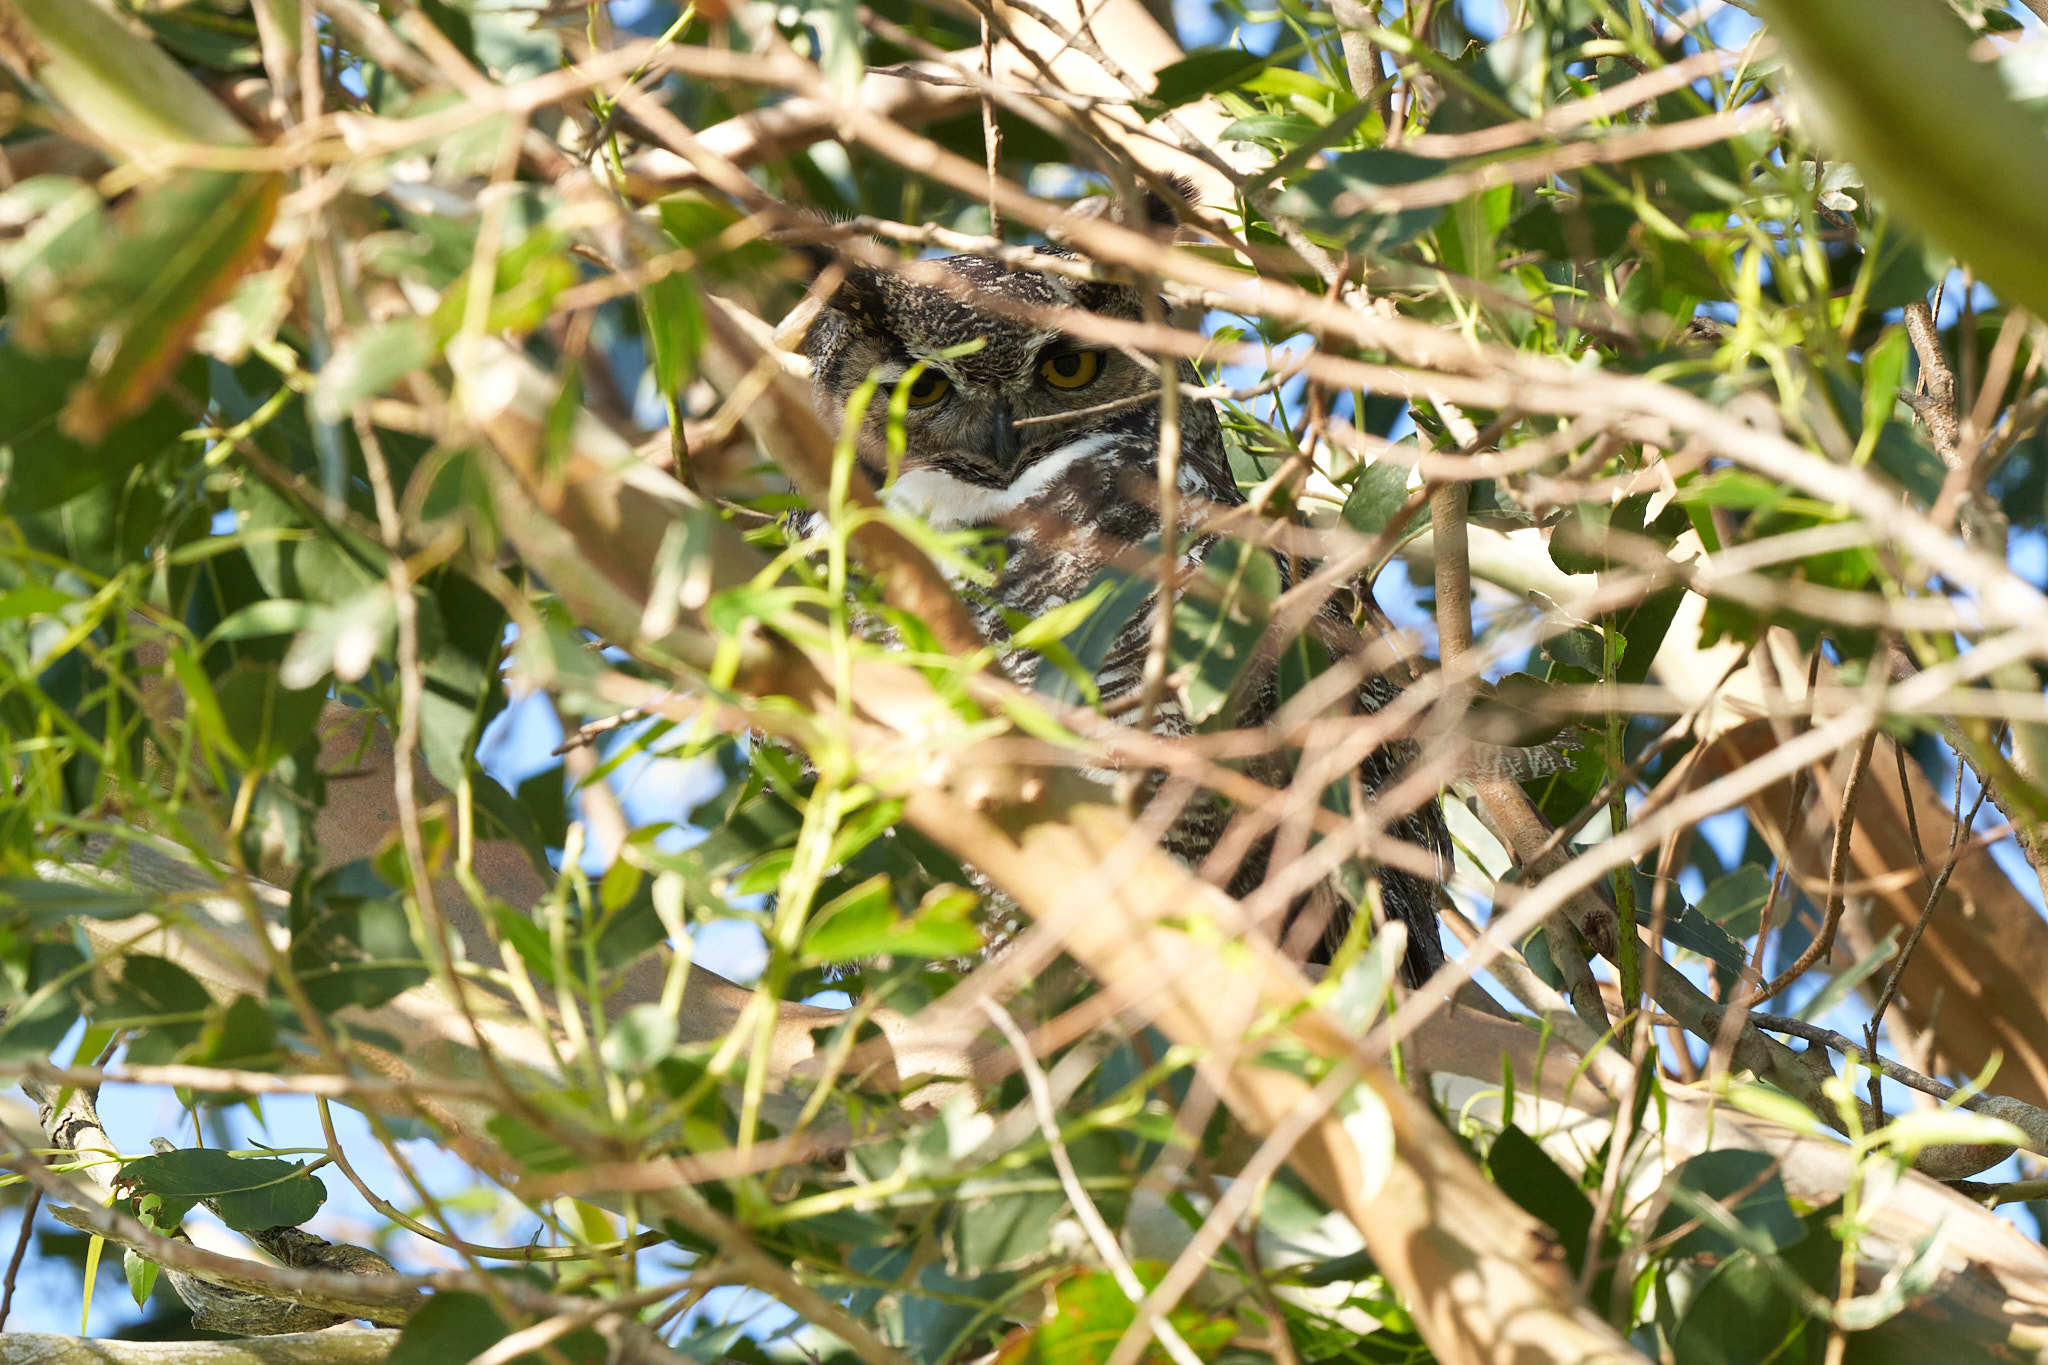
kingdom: Animalia
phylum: Chordata
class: Aves
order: Strigiformes
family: Strigidae
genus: Bubo
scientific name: Bubo virginianus
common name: Great horned owl
